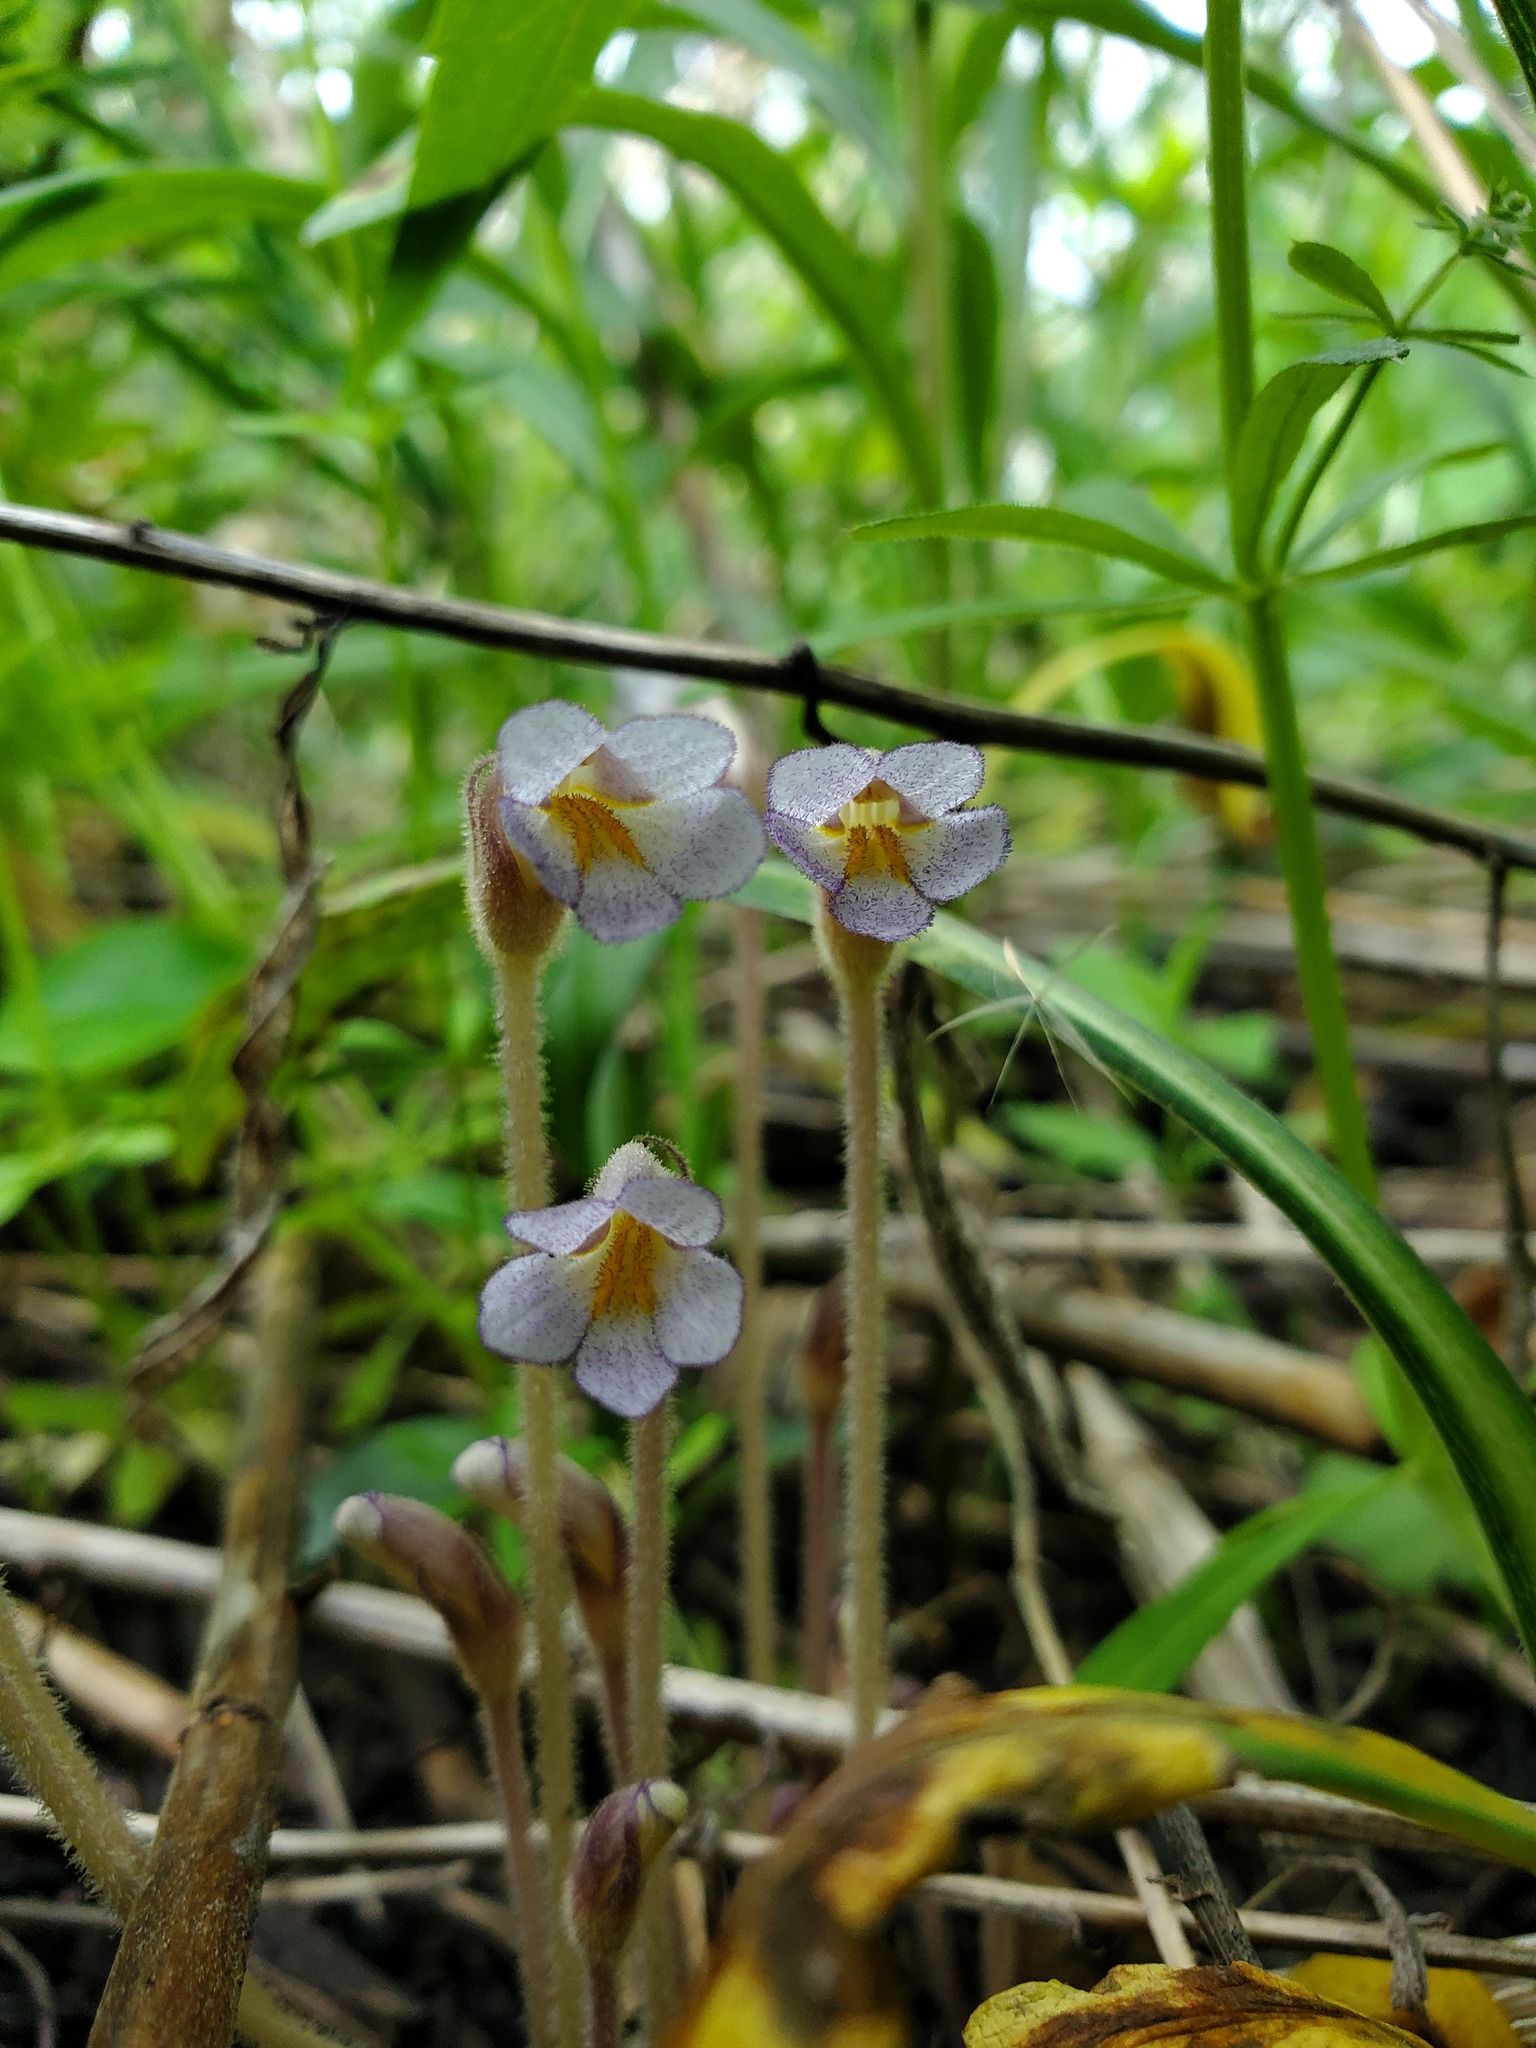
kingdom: Plantae
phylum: Tracheophyta
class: Magnoliopsida
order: Lamiales
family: Orobanchaceae
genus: Aphyllon
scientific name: Aphyllon uniflorum
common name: One-flowered broomrape
